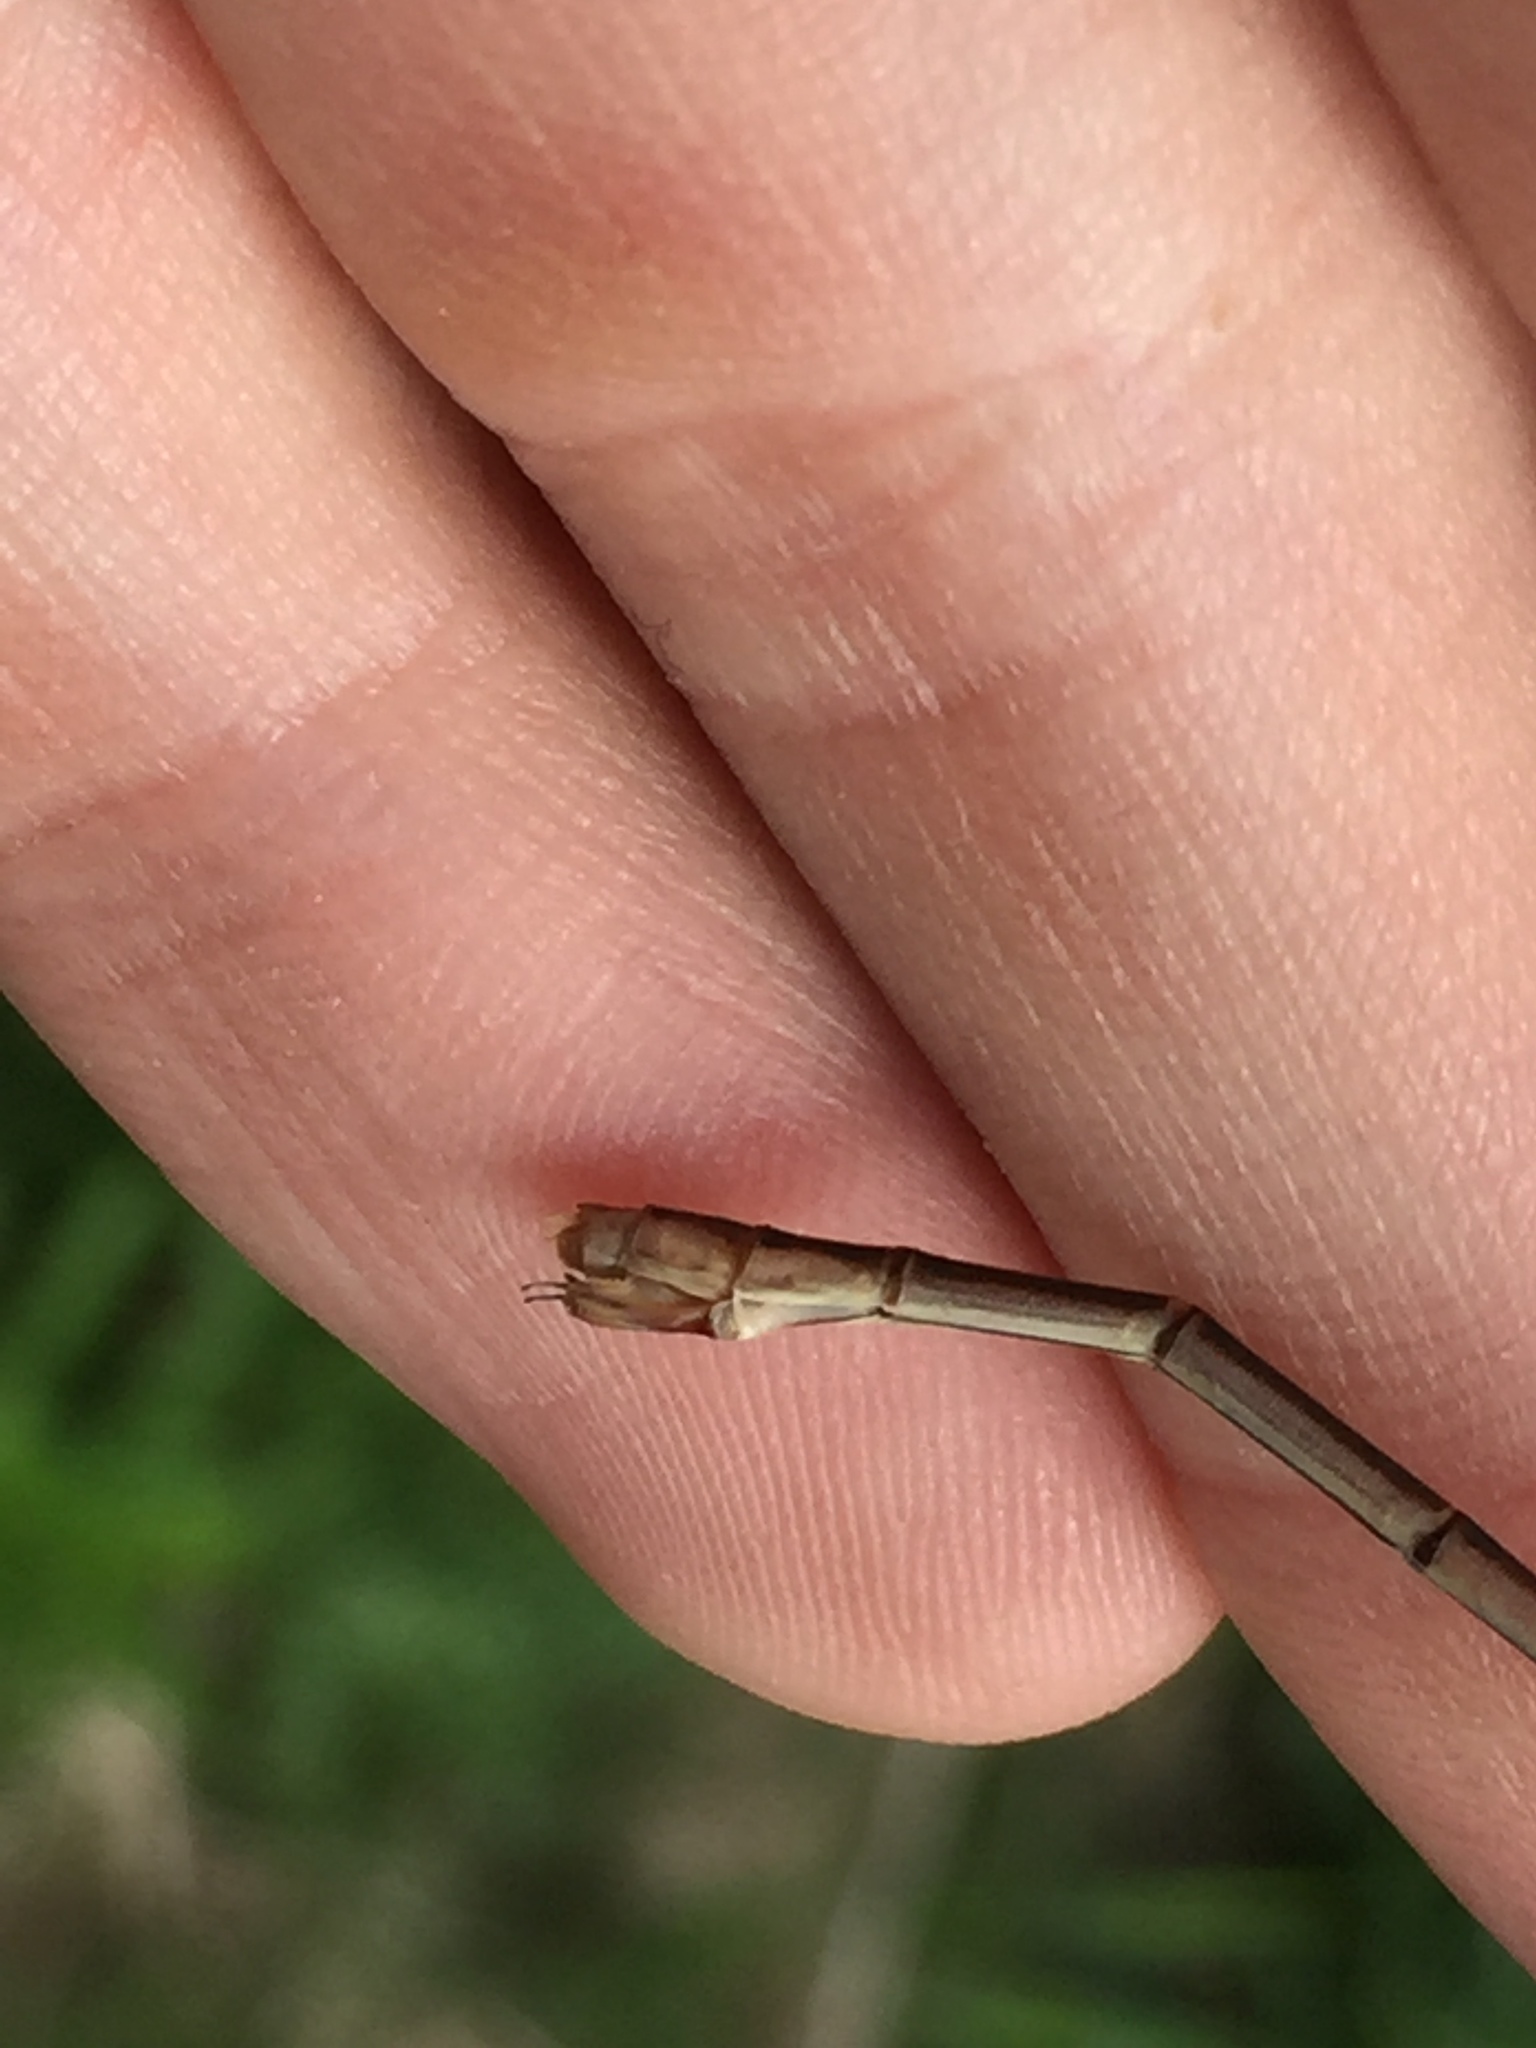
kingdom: Animalia
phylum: Arthropoda
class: Insecta
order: Odonata
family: Lestidae
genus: Lestes
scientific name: Lestes inaequalis
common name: Elegant spreadwing
